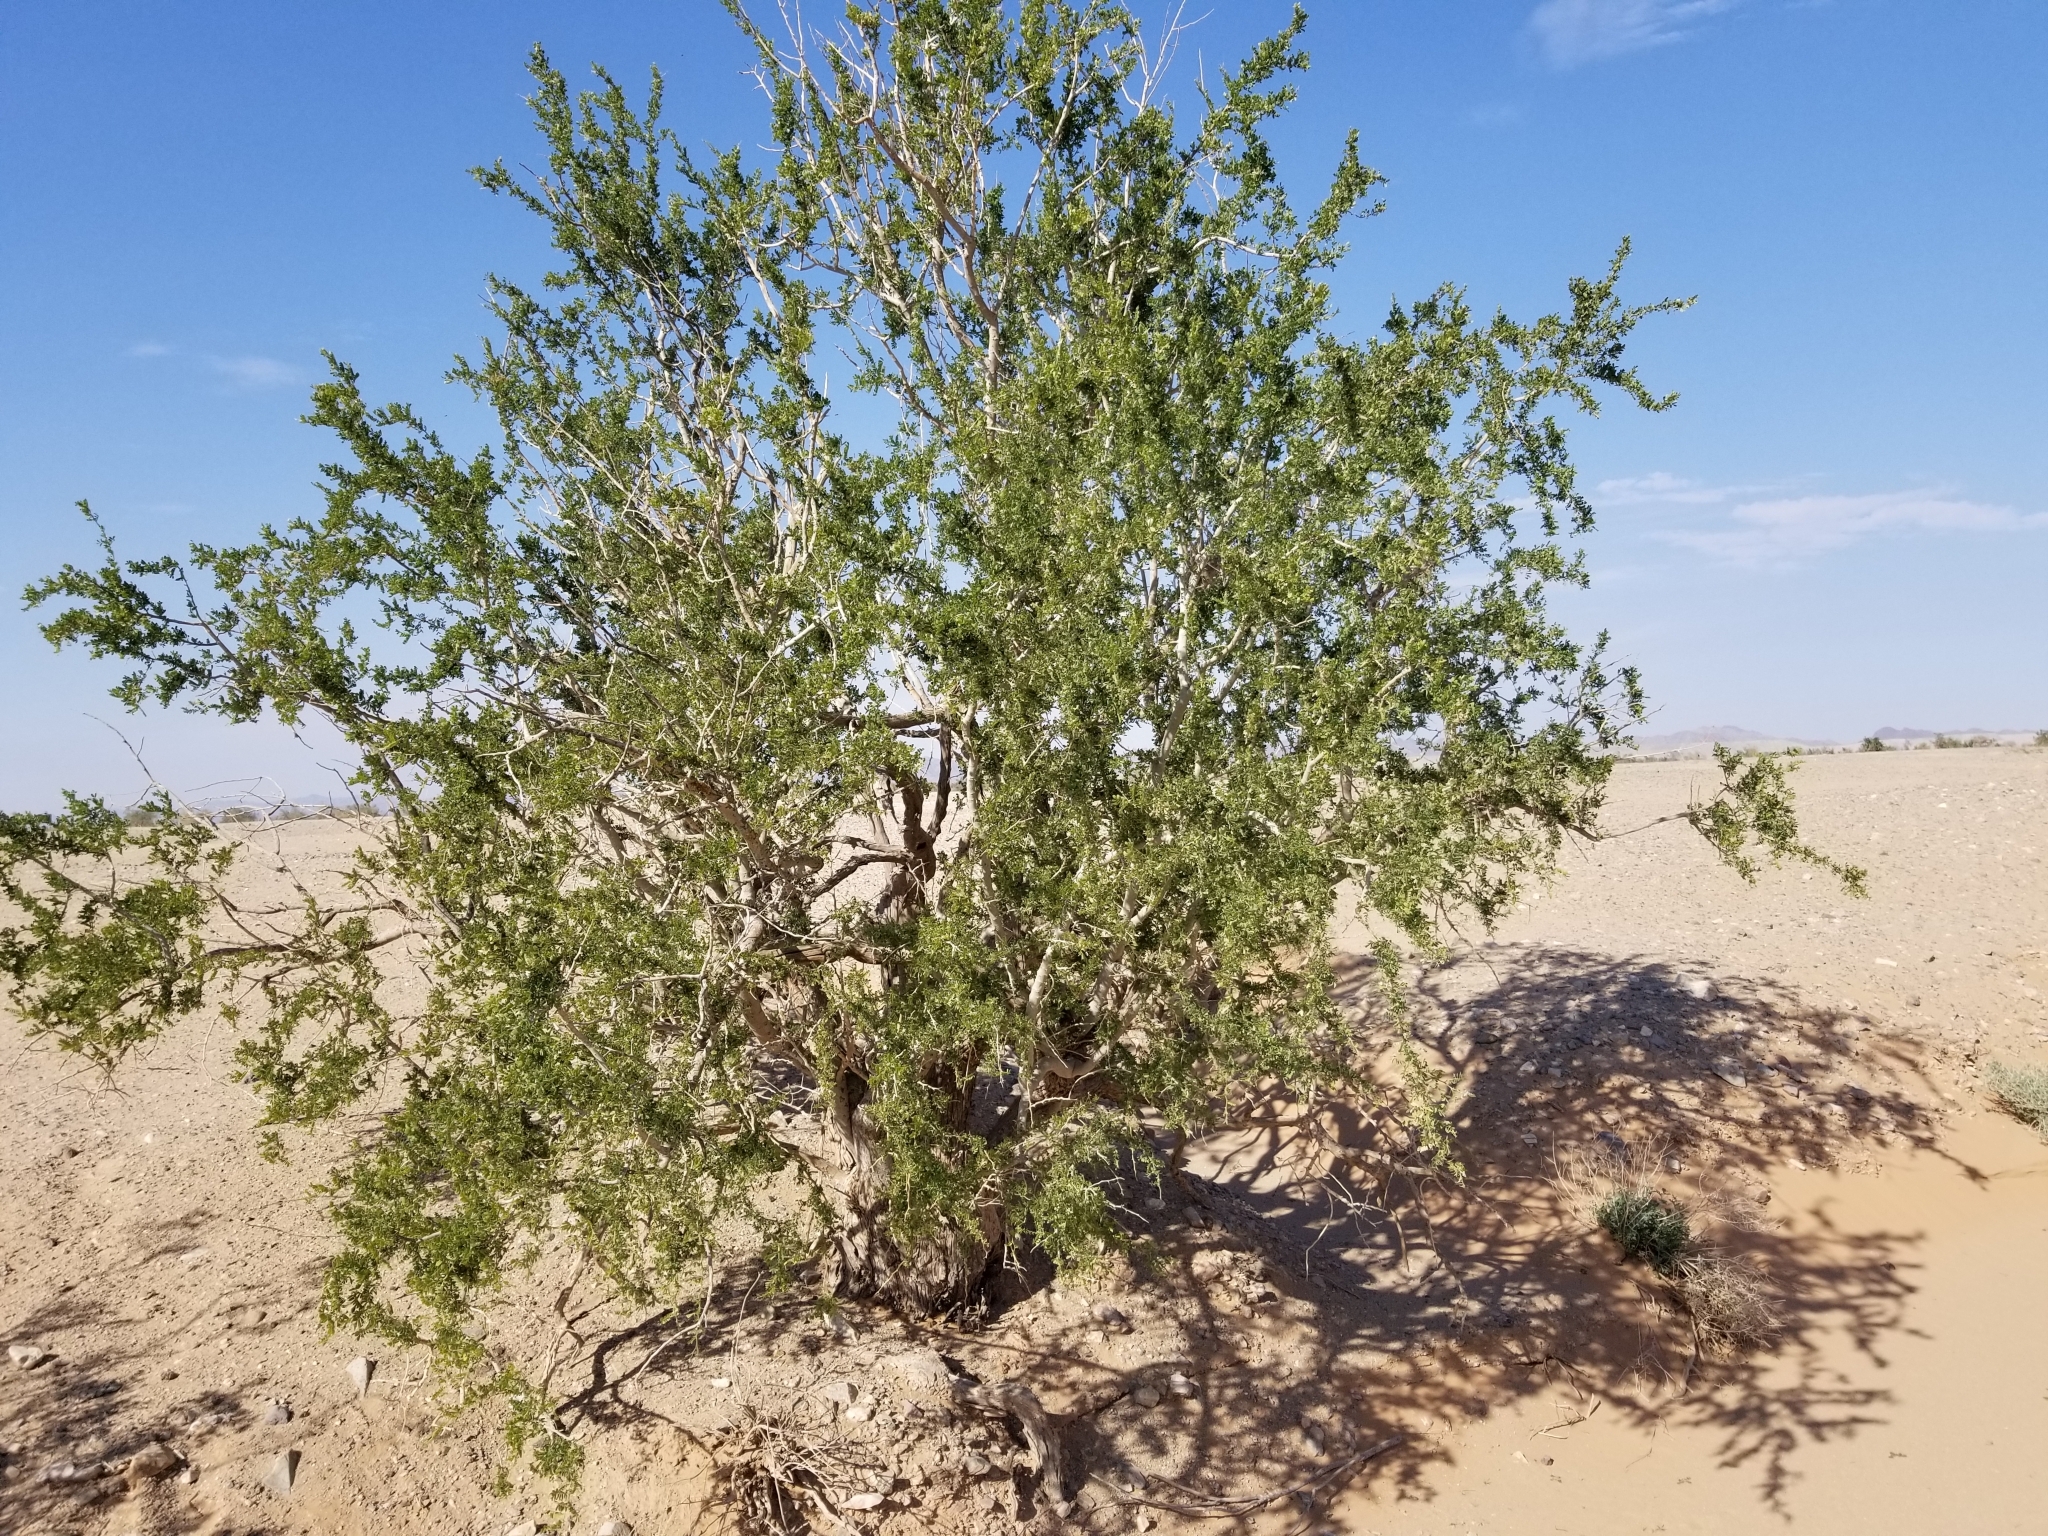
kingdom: Plantae
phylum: Tracheophyta
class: Magnoliopsida
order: Fabales
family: Fabaceae
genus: Olneya
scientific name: Olneya tesota
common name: Desert ironwood
